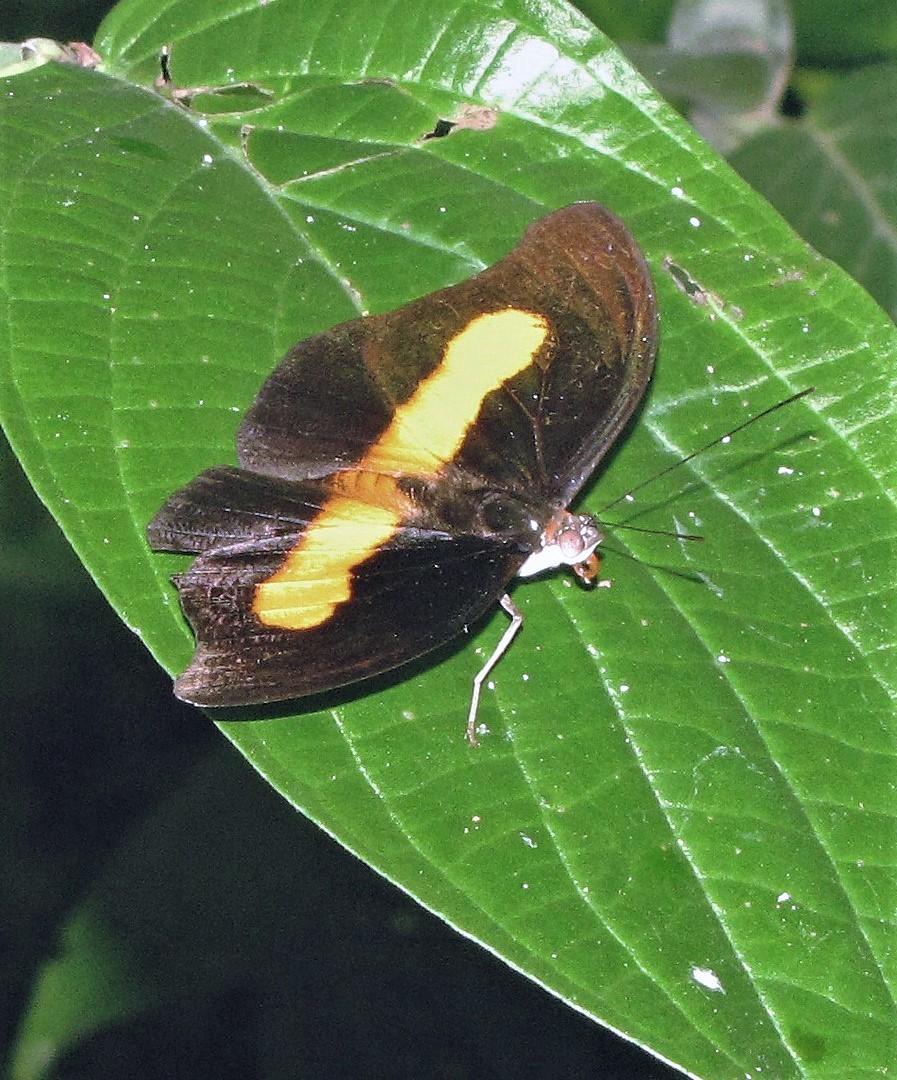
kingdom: Animalia
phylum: Arthropoda
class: Insecta
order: Lepidoptera
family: Nymphalidae
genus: Catonephele
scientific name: Catonephele acontius
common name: Unspotted firewing
